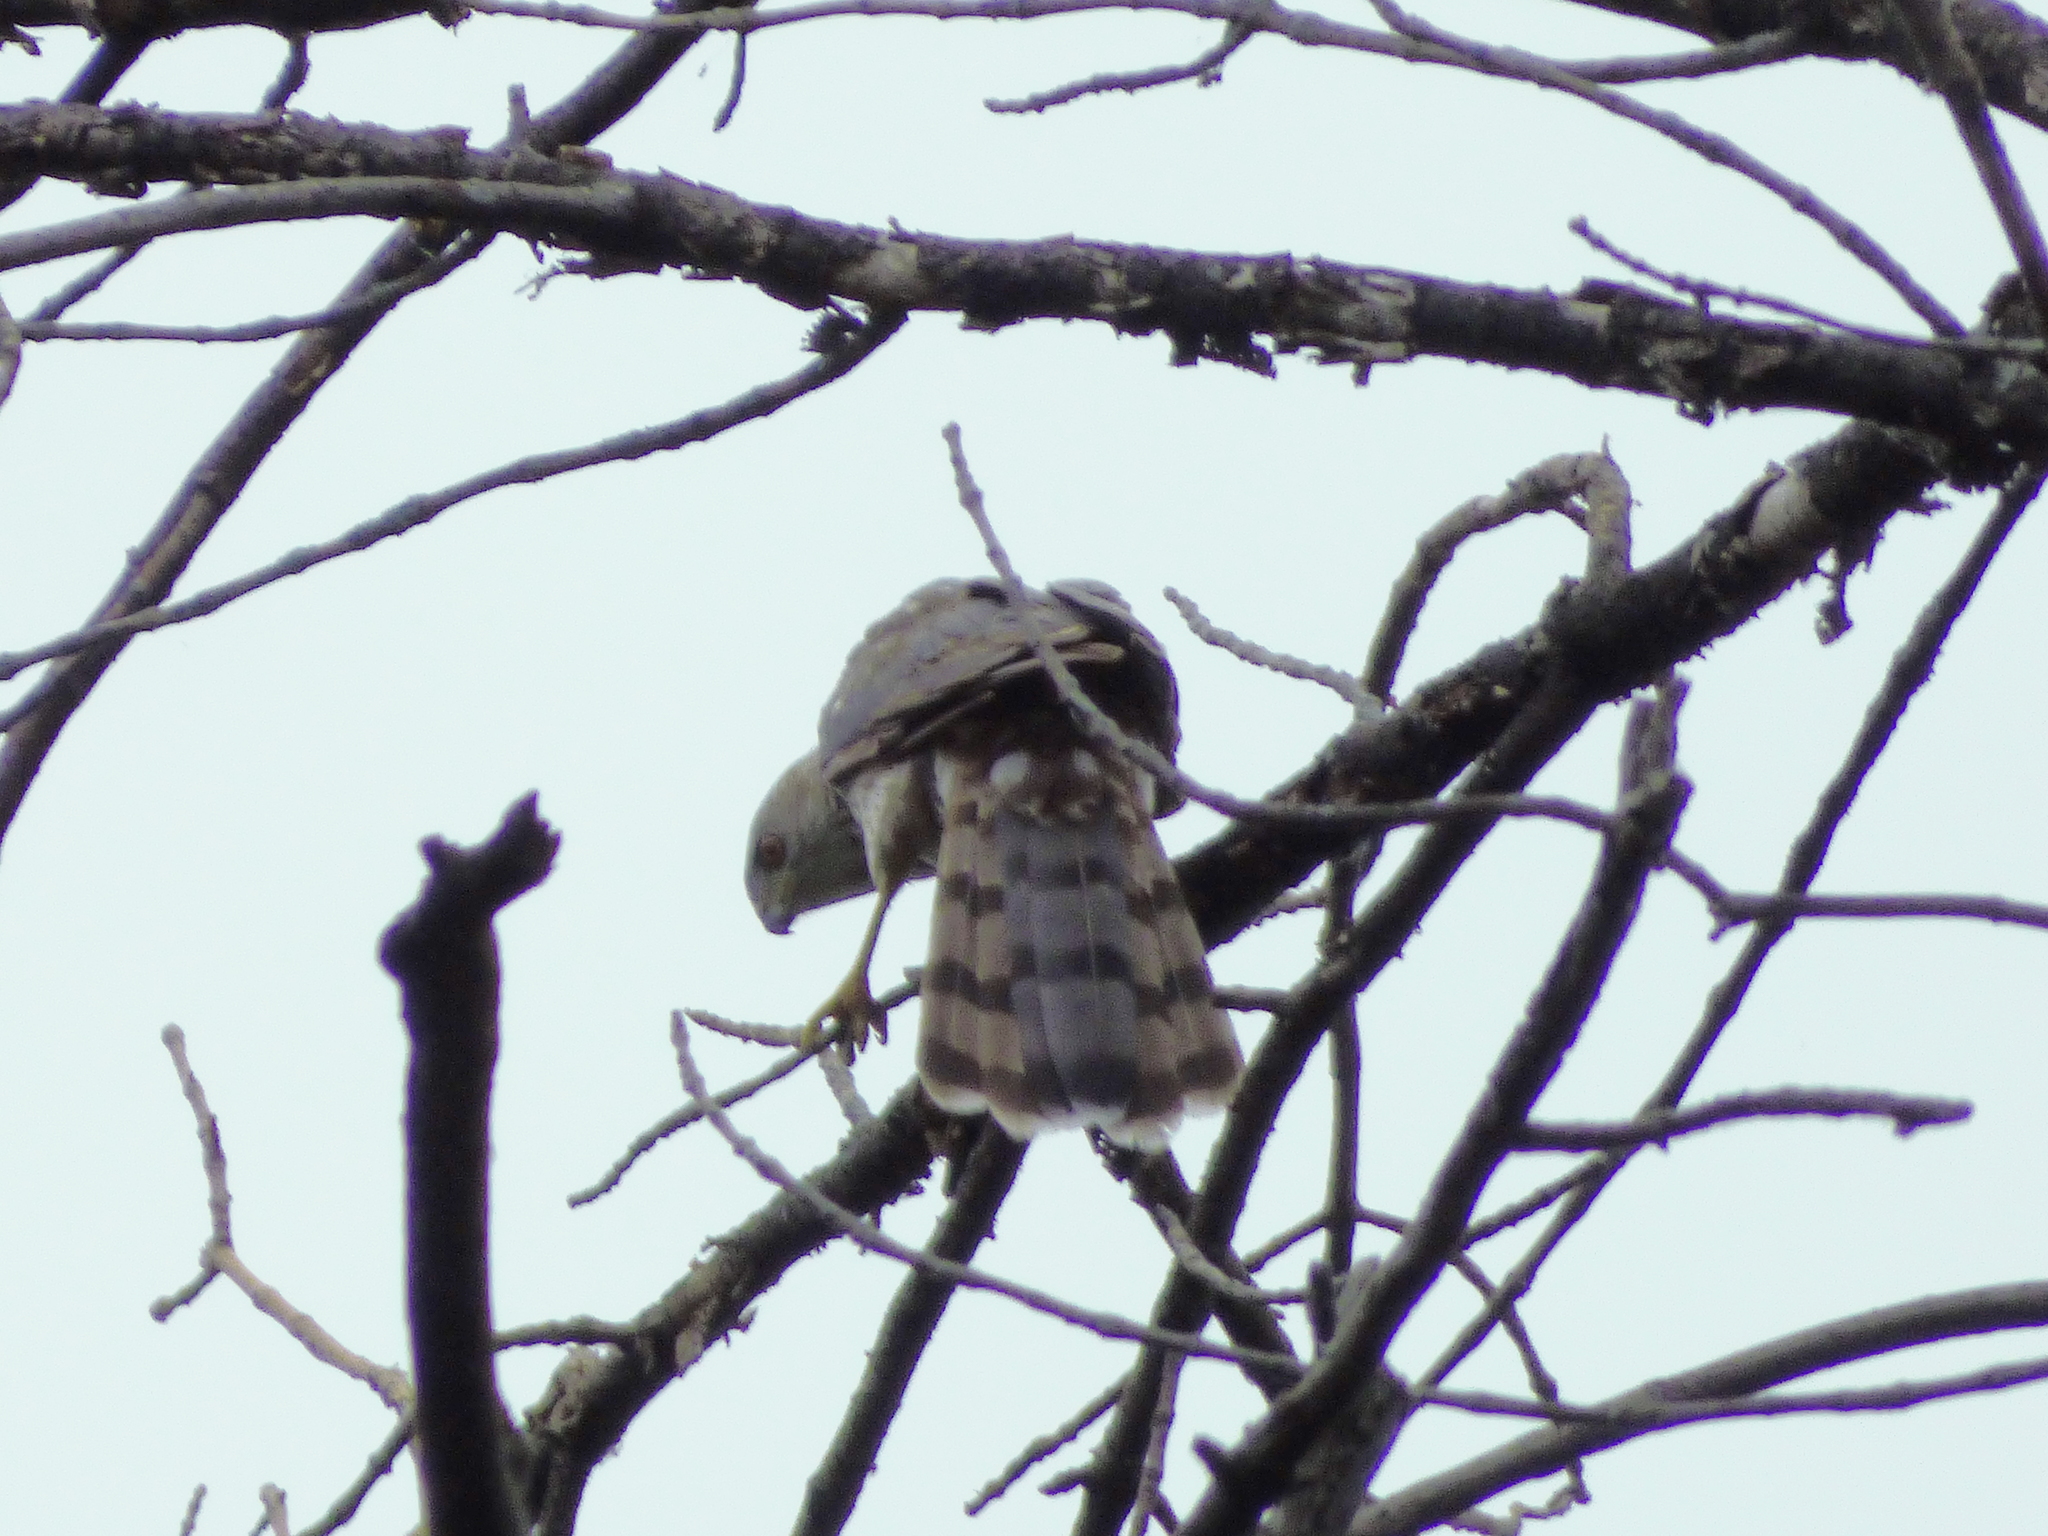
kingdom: Animalia
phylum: Chordata
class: Aves
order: Accipitriformes
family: Accipitridae
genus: Accipiter
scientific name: Accipiter cooperii
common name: Cooper's hawk
